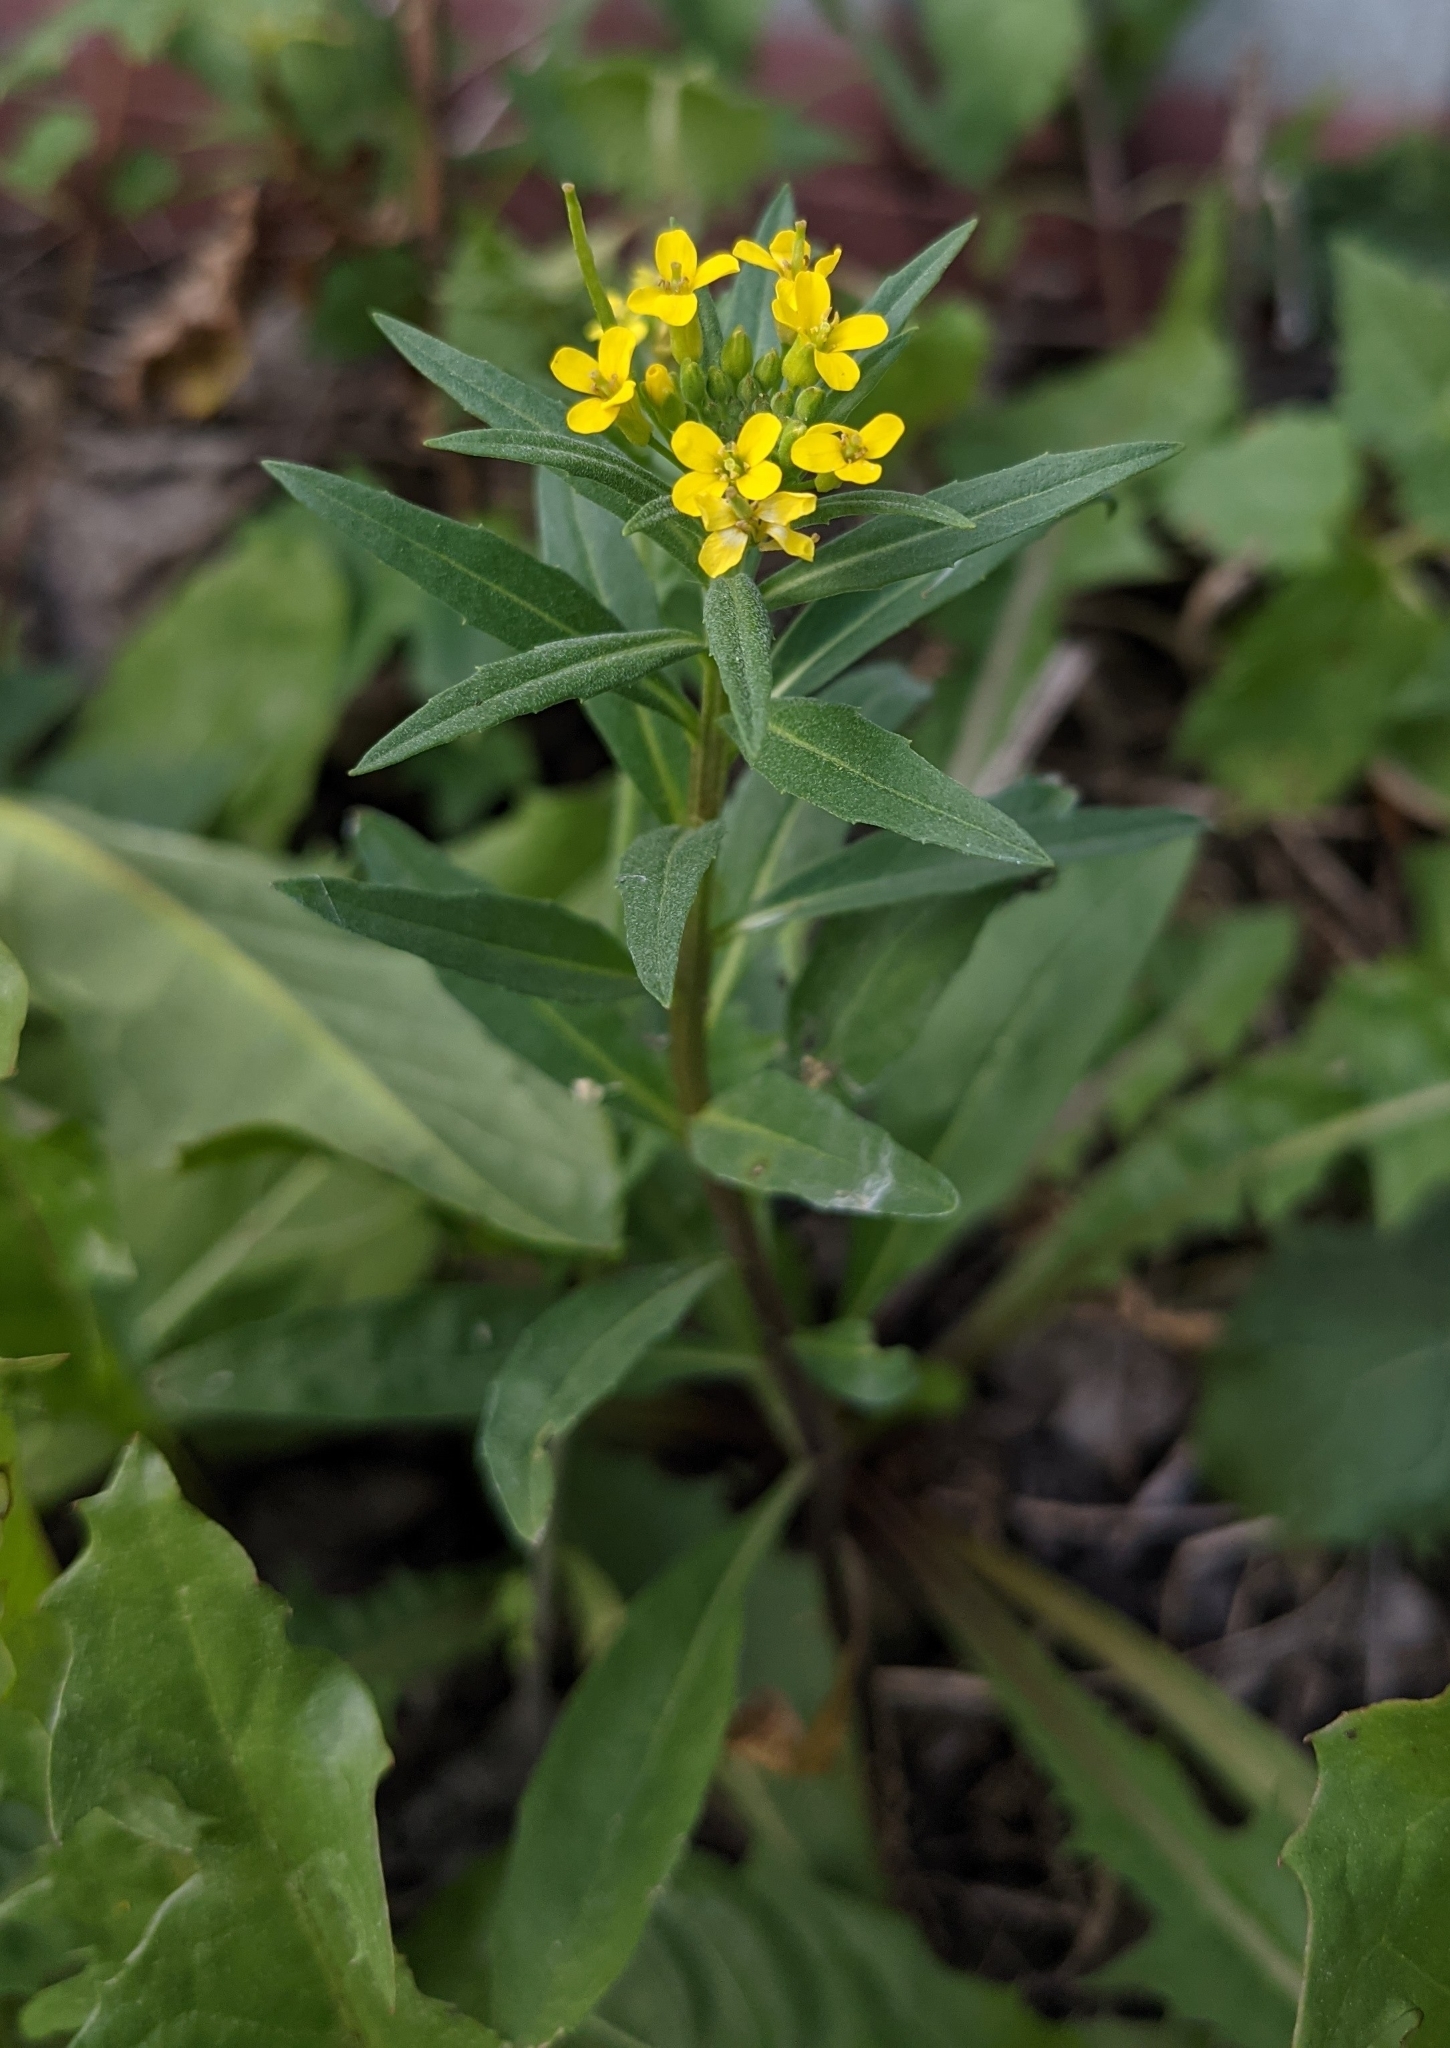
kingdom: Plantae
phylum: Tracheophyta
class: Magnoliopsida
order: Brassicales
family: Brassicaceae
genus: Erysimum
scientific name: Erysimum cheiranthoides
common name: Treacle mustard
